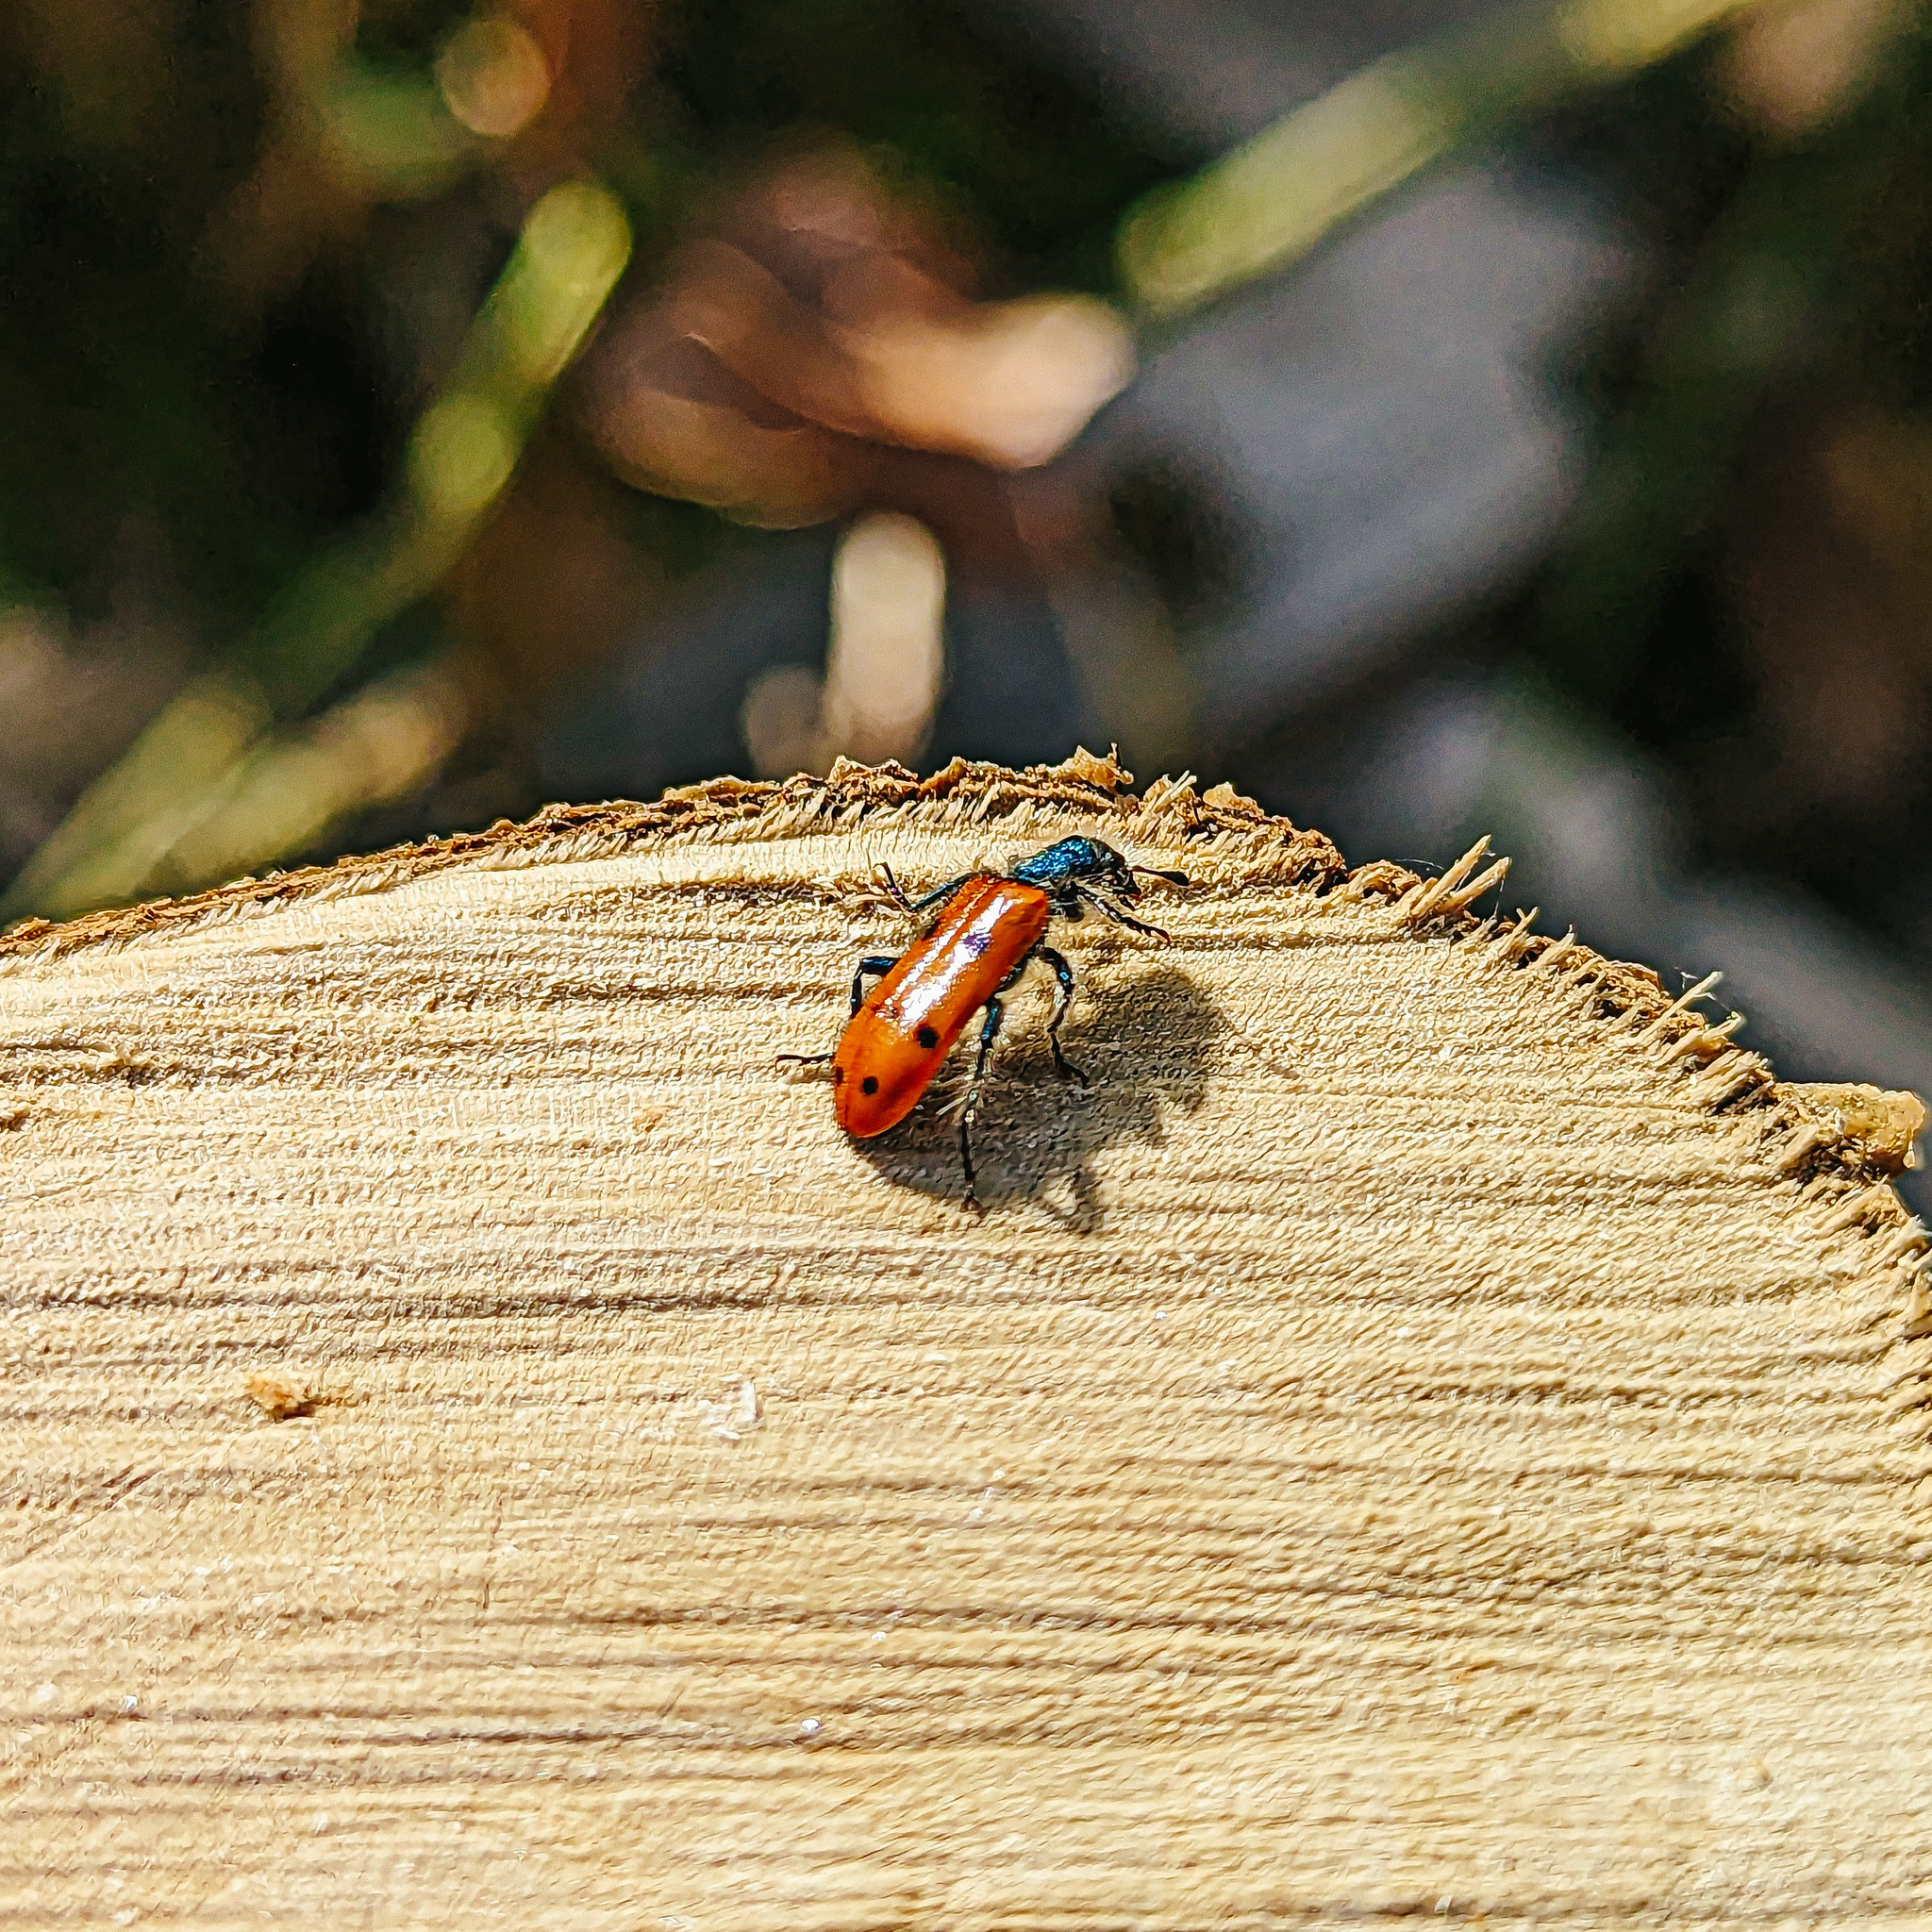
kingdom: Animalia
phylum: Arthropoda
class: Insecta
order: Coleoptera
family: Cleridae
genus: Trichodes
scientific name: Trichodes octopunctatus
